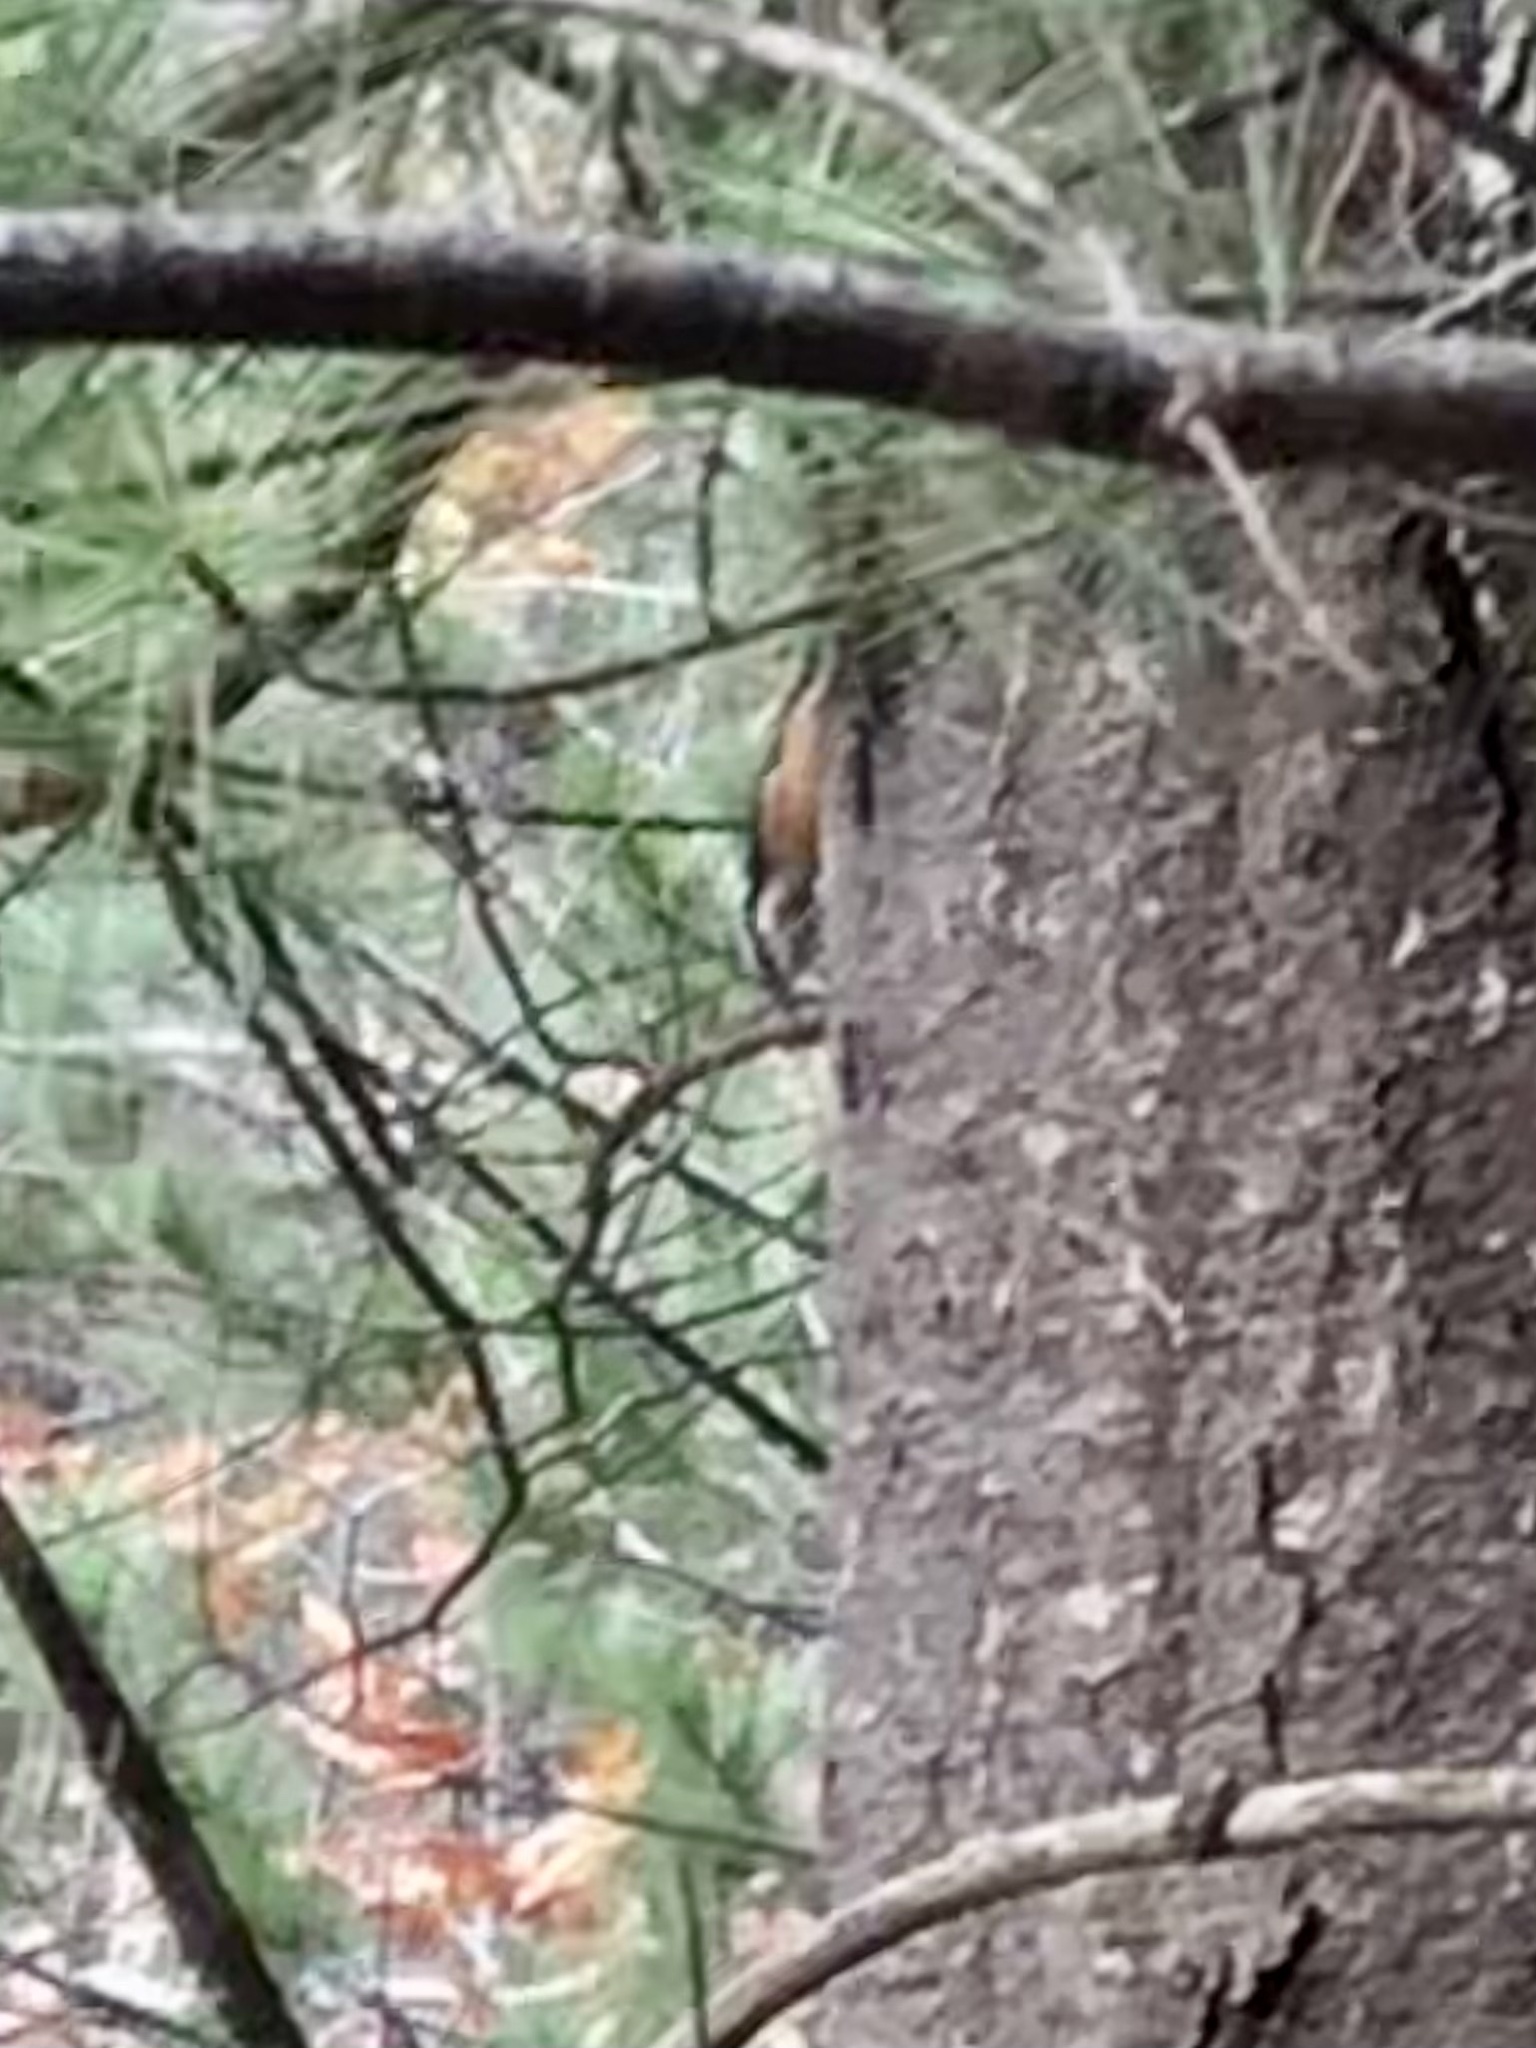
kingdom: Animalia
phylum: Chordata
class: Aves
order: Passeriformes
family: Sittidae
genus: Sitta
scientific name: Sitta canadensis
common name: Red-breasted nuthatch
